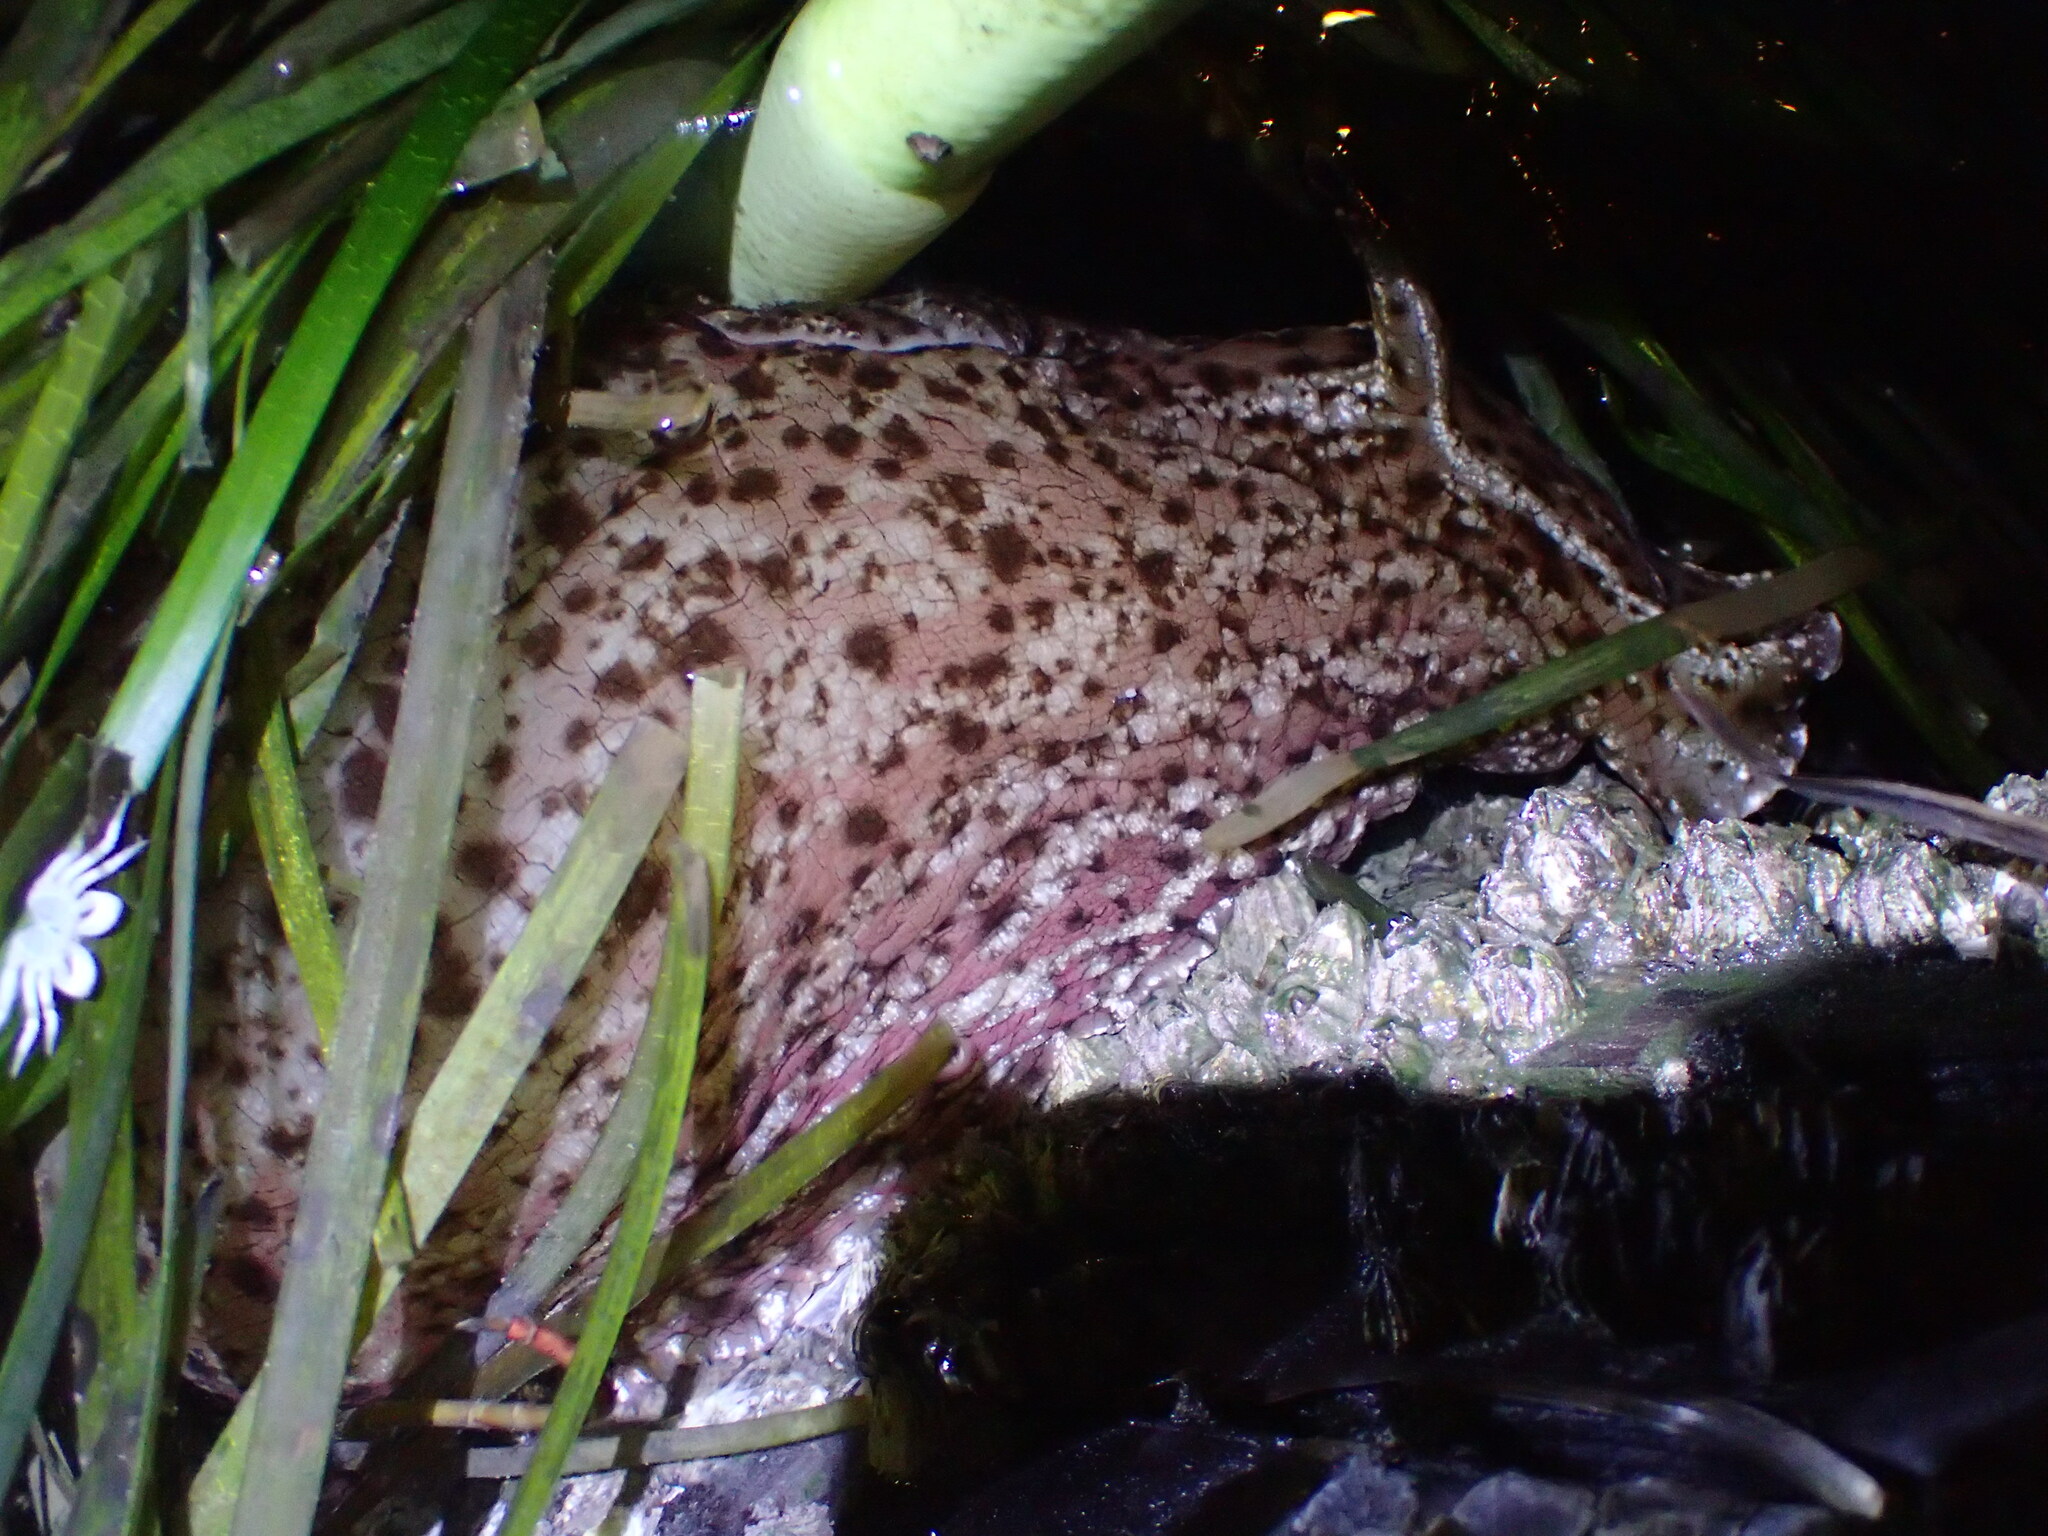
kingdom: Animalia
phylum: Mollusca
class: Gastropoda
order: Aplysiida
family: Aplysiidae
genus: Aplysia
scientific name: Aplysia californica
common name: California seahare
